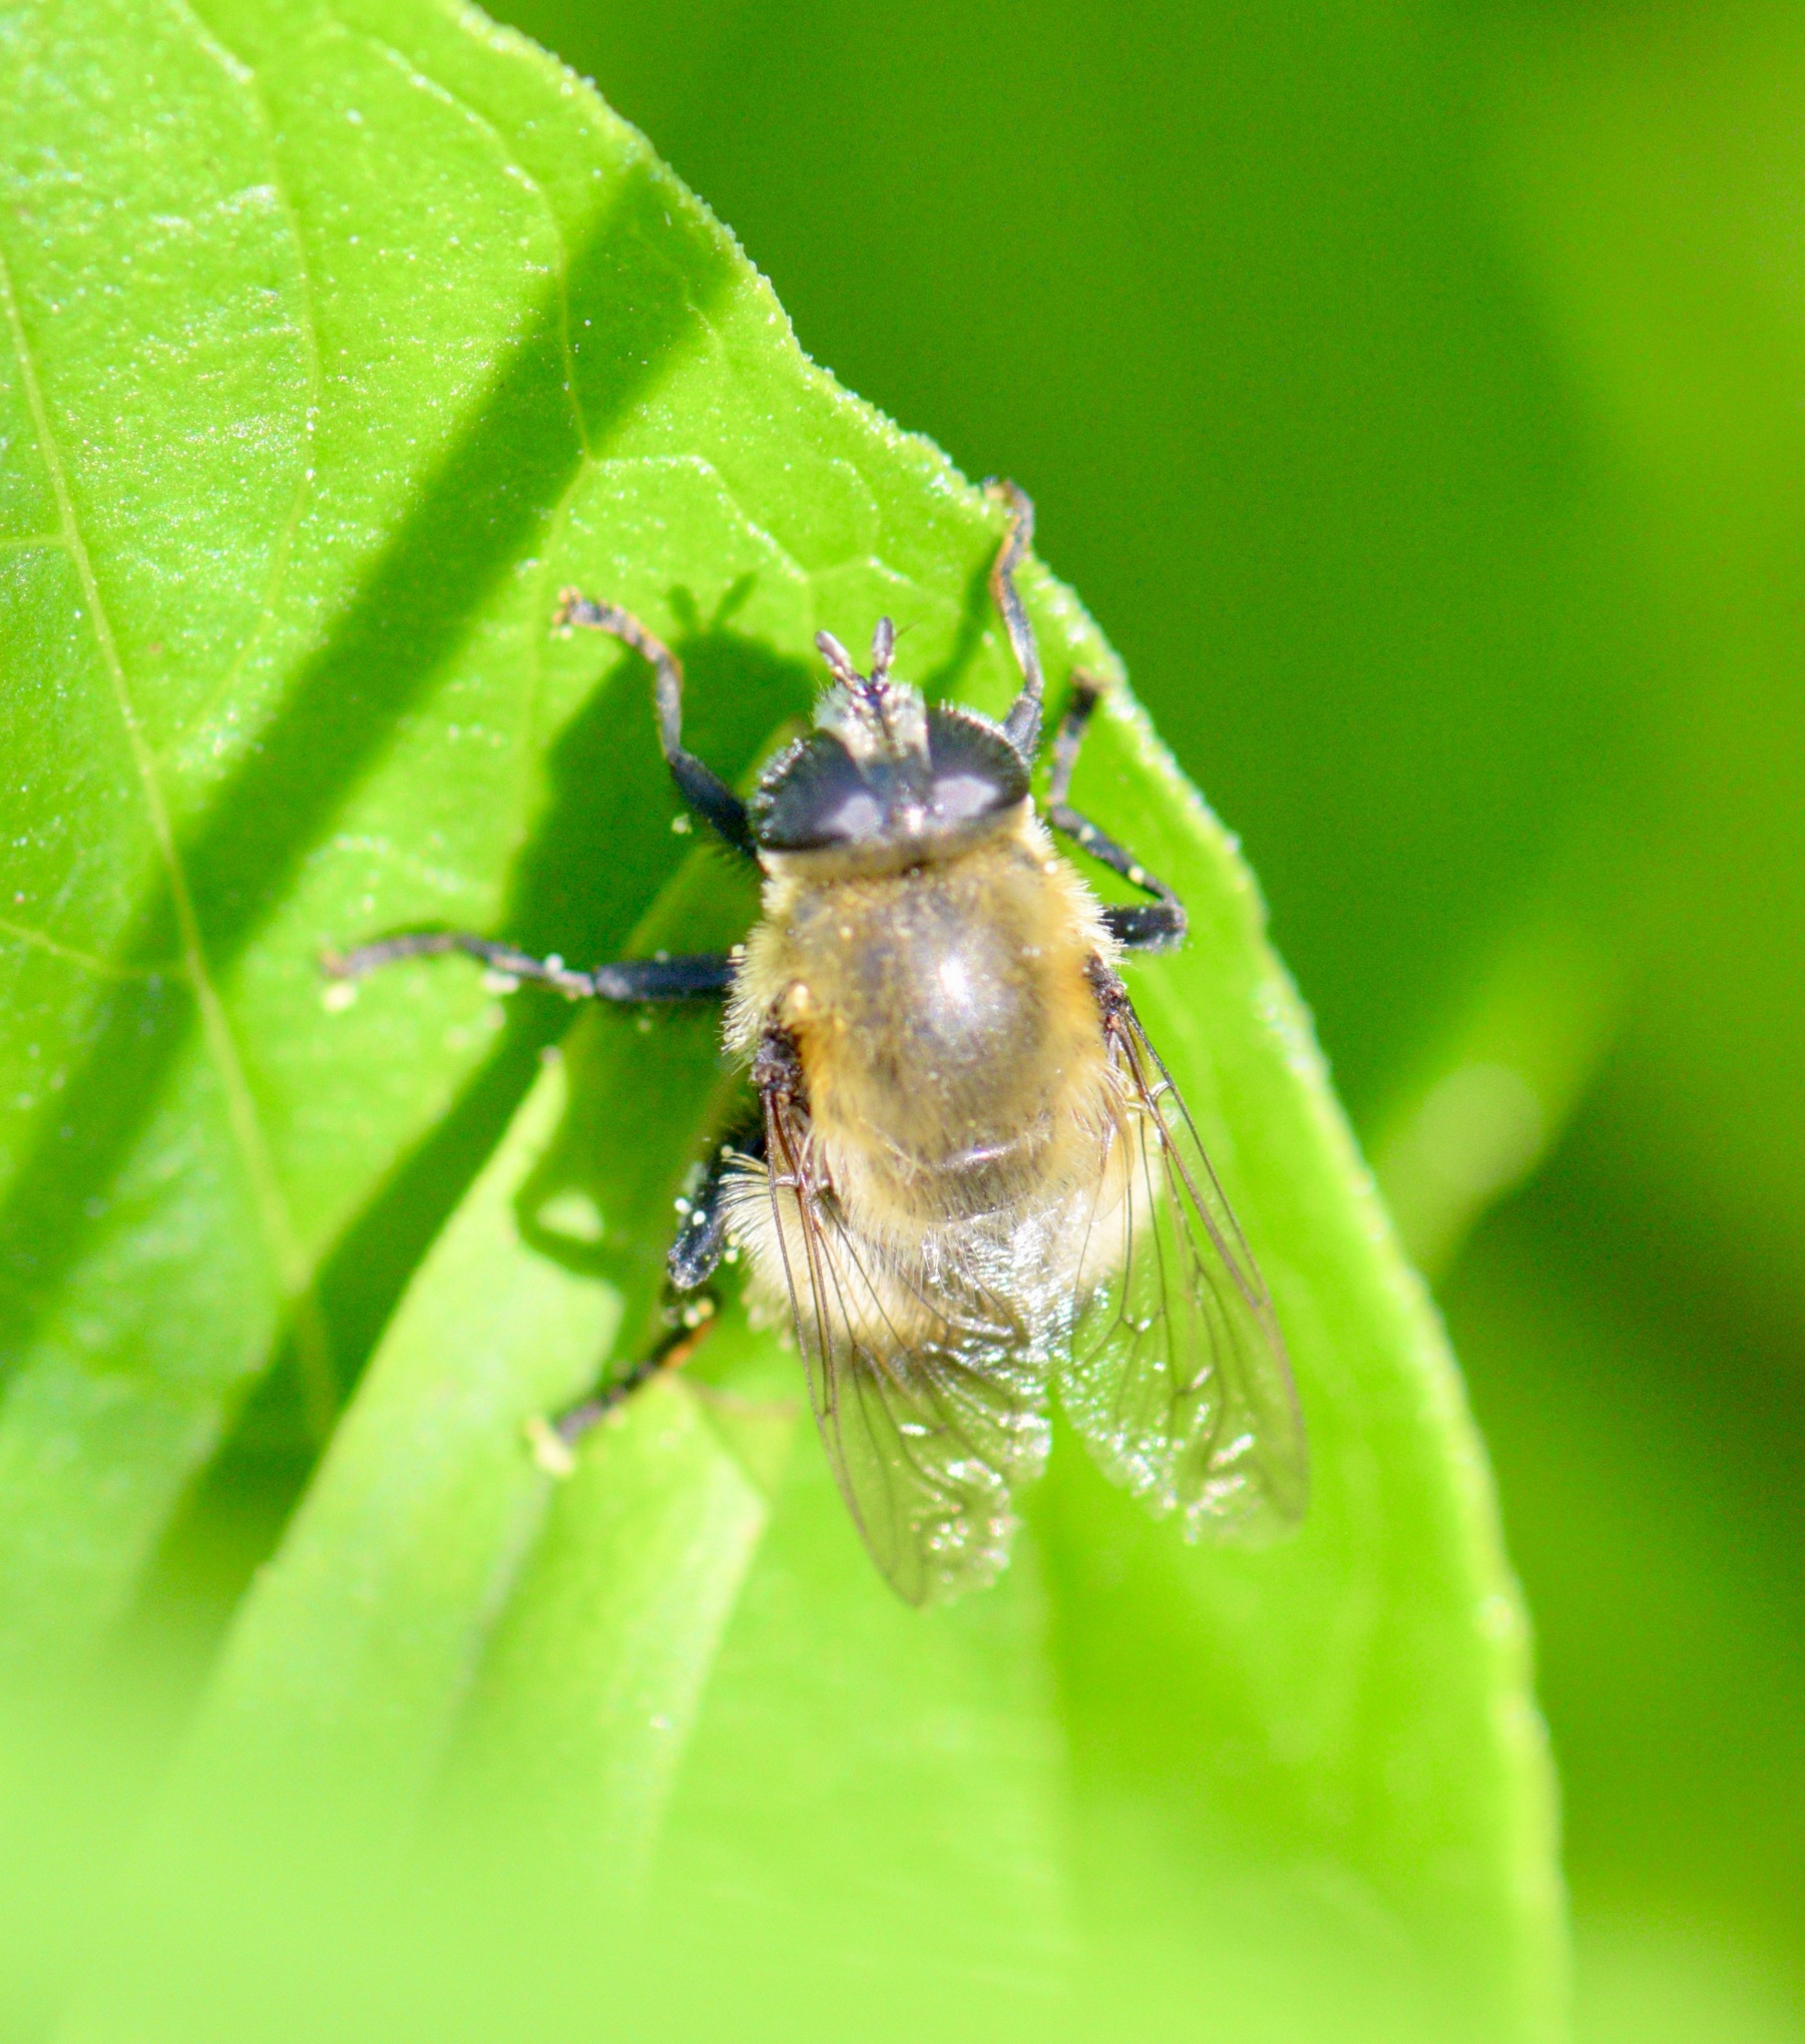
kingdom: Animalia
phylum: Arthropoda
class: Insecta
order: Diptera
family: Syrphidae
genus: Merodon
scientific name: Merodon equestris
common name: Greater bulb-fly
